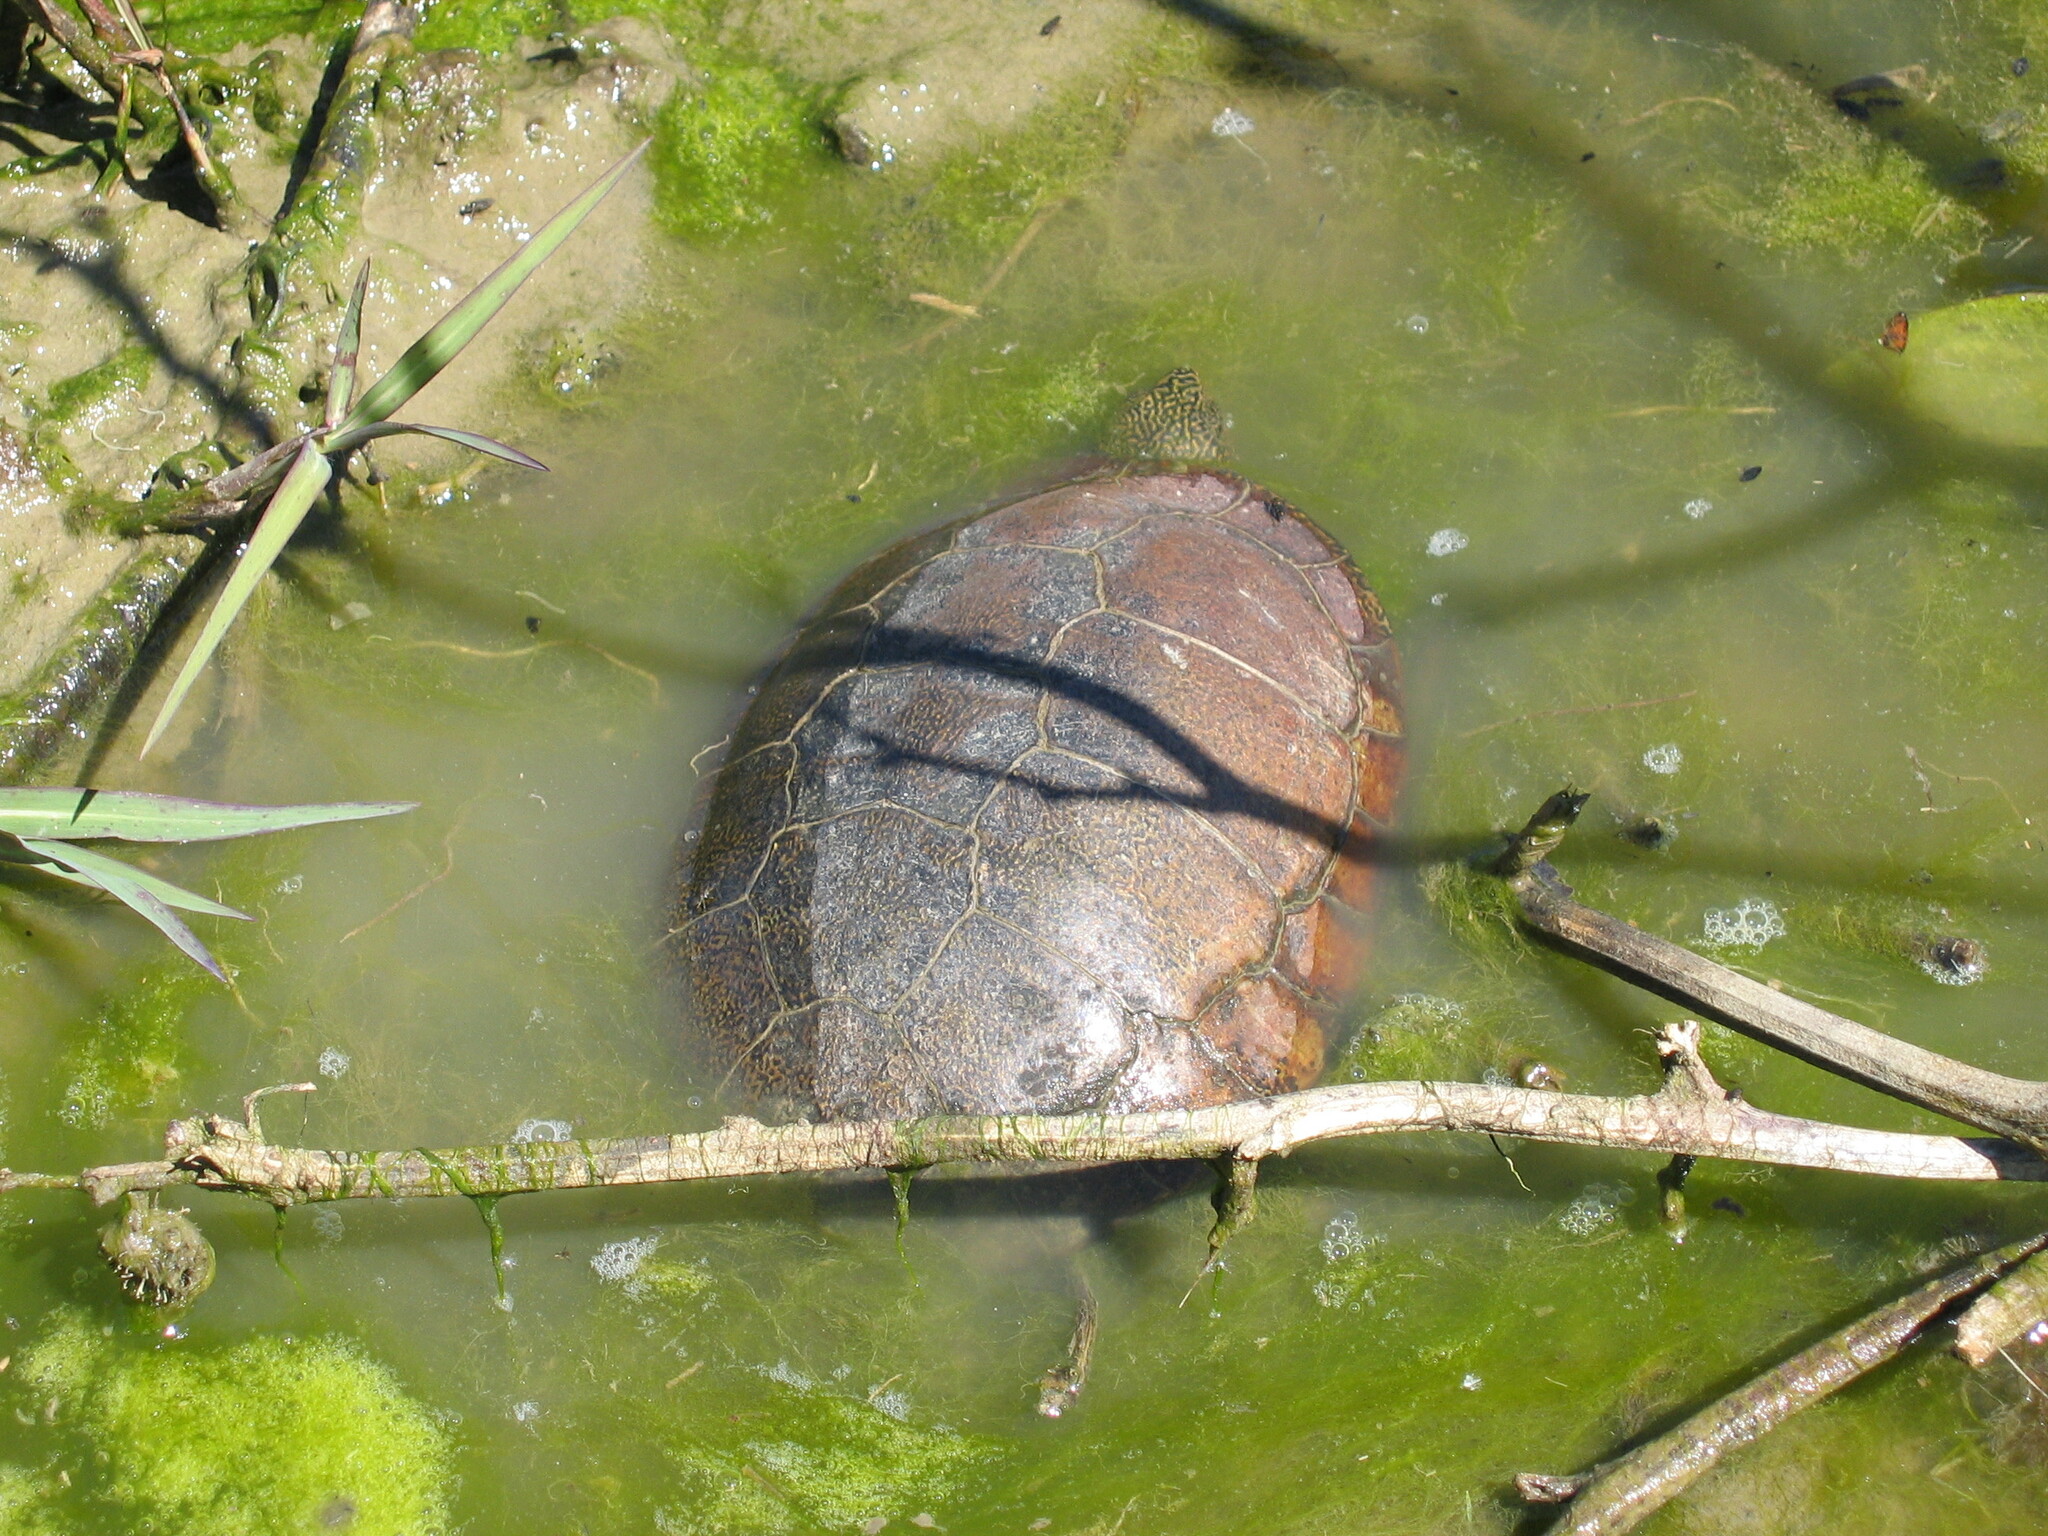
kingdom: Animalia
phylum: Chordata
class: Testudines
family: Emydidae
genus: Actinemys
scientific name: Actinemys marmorata
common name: Western pond turtle
